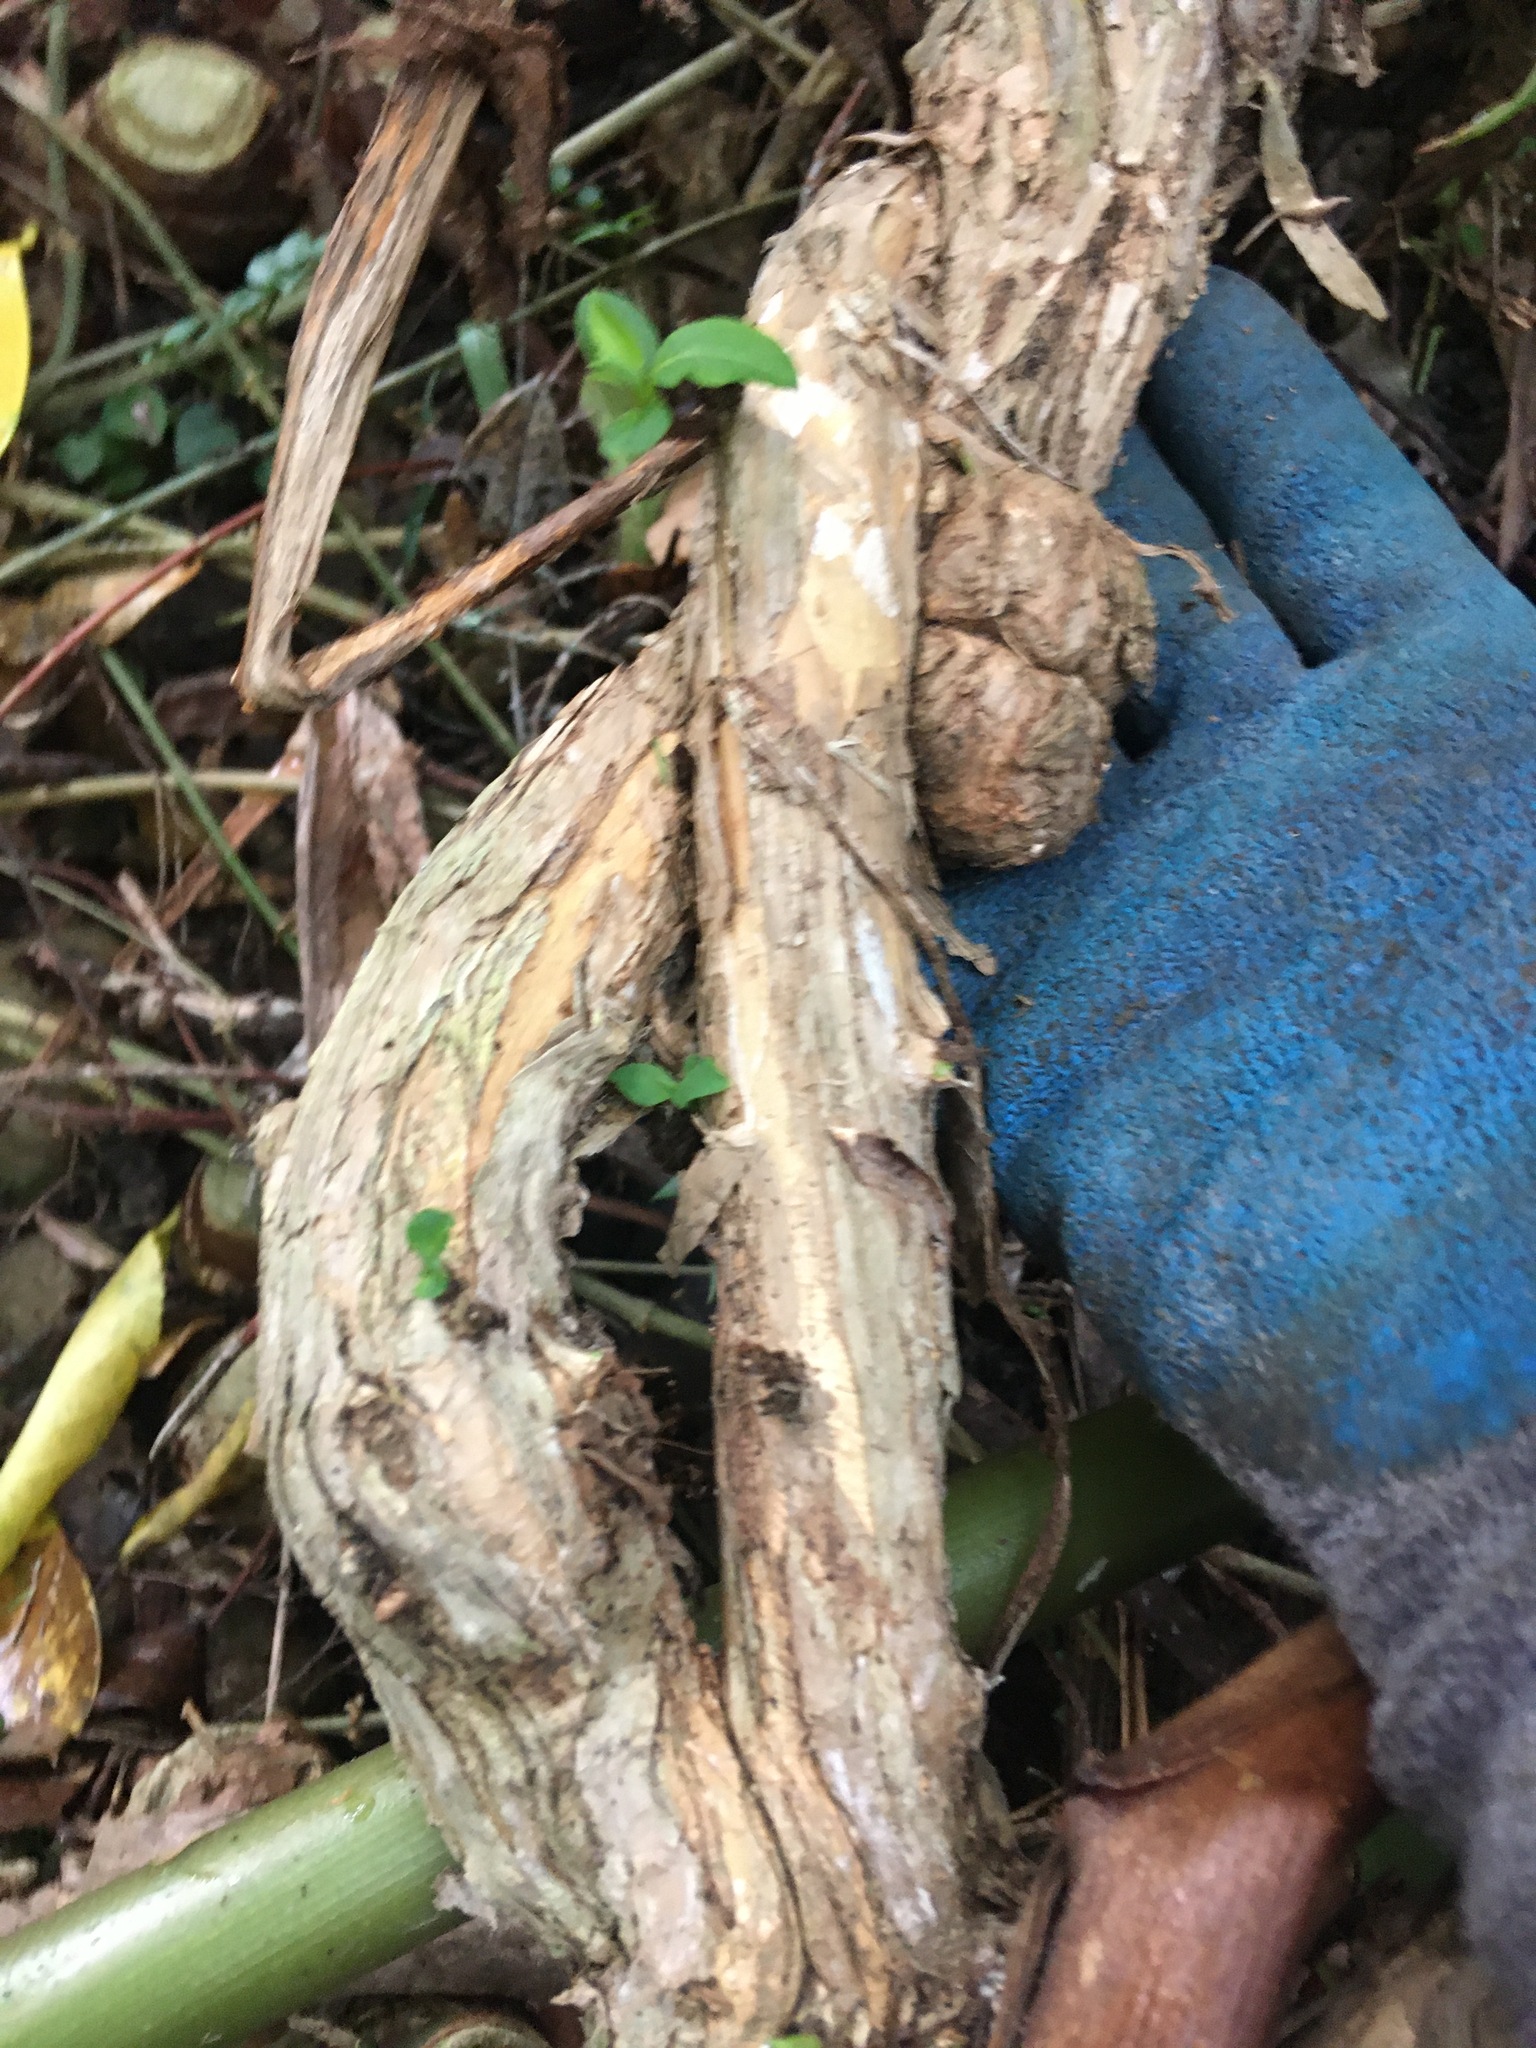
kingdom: Plantae
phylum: Tracheophyta
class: Magnoliopsida
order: Dipsacales
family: Caprifoliaceae
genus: Lonicera
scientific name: Lonicera japonica
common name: Japanese honeysuckle
